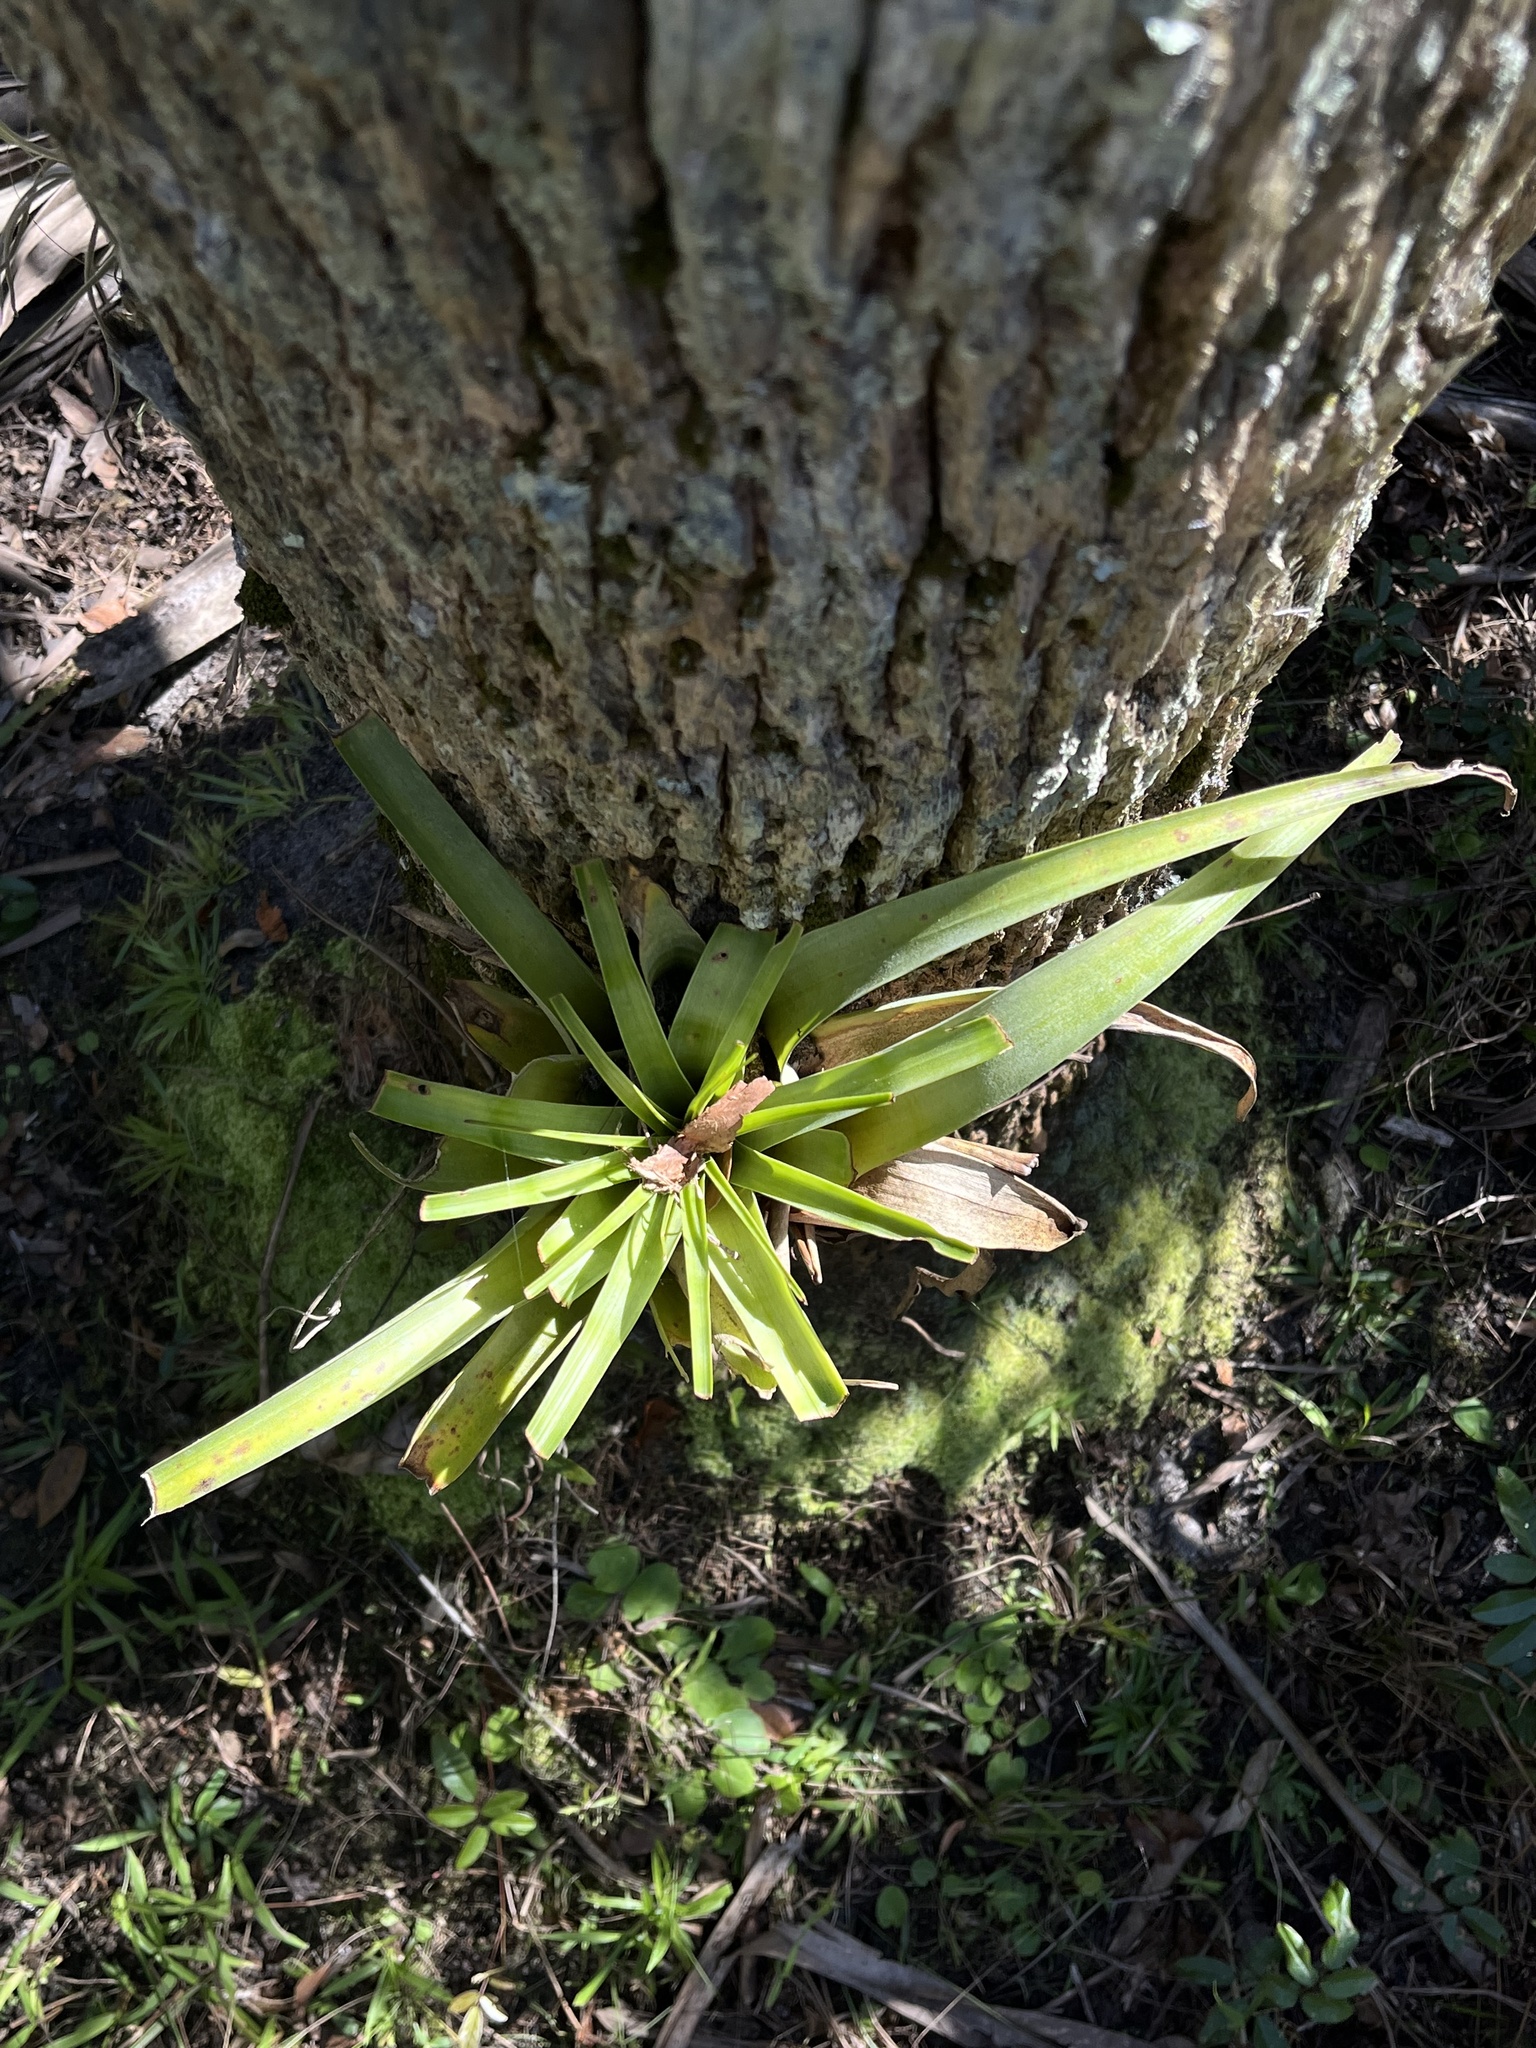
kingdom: Plantae
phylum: Tracheophyta
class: Liliopsida
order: Poales
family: Bromeliaceae
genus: Tillandsia
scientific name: Tillandsia utriculata
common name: Wild pine
